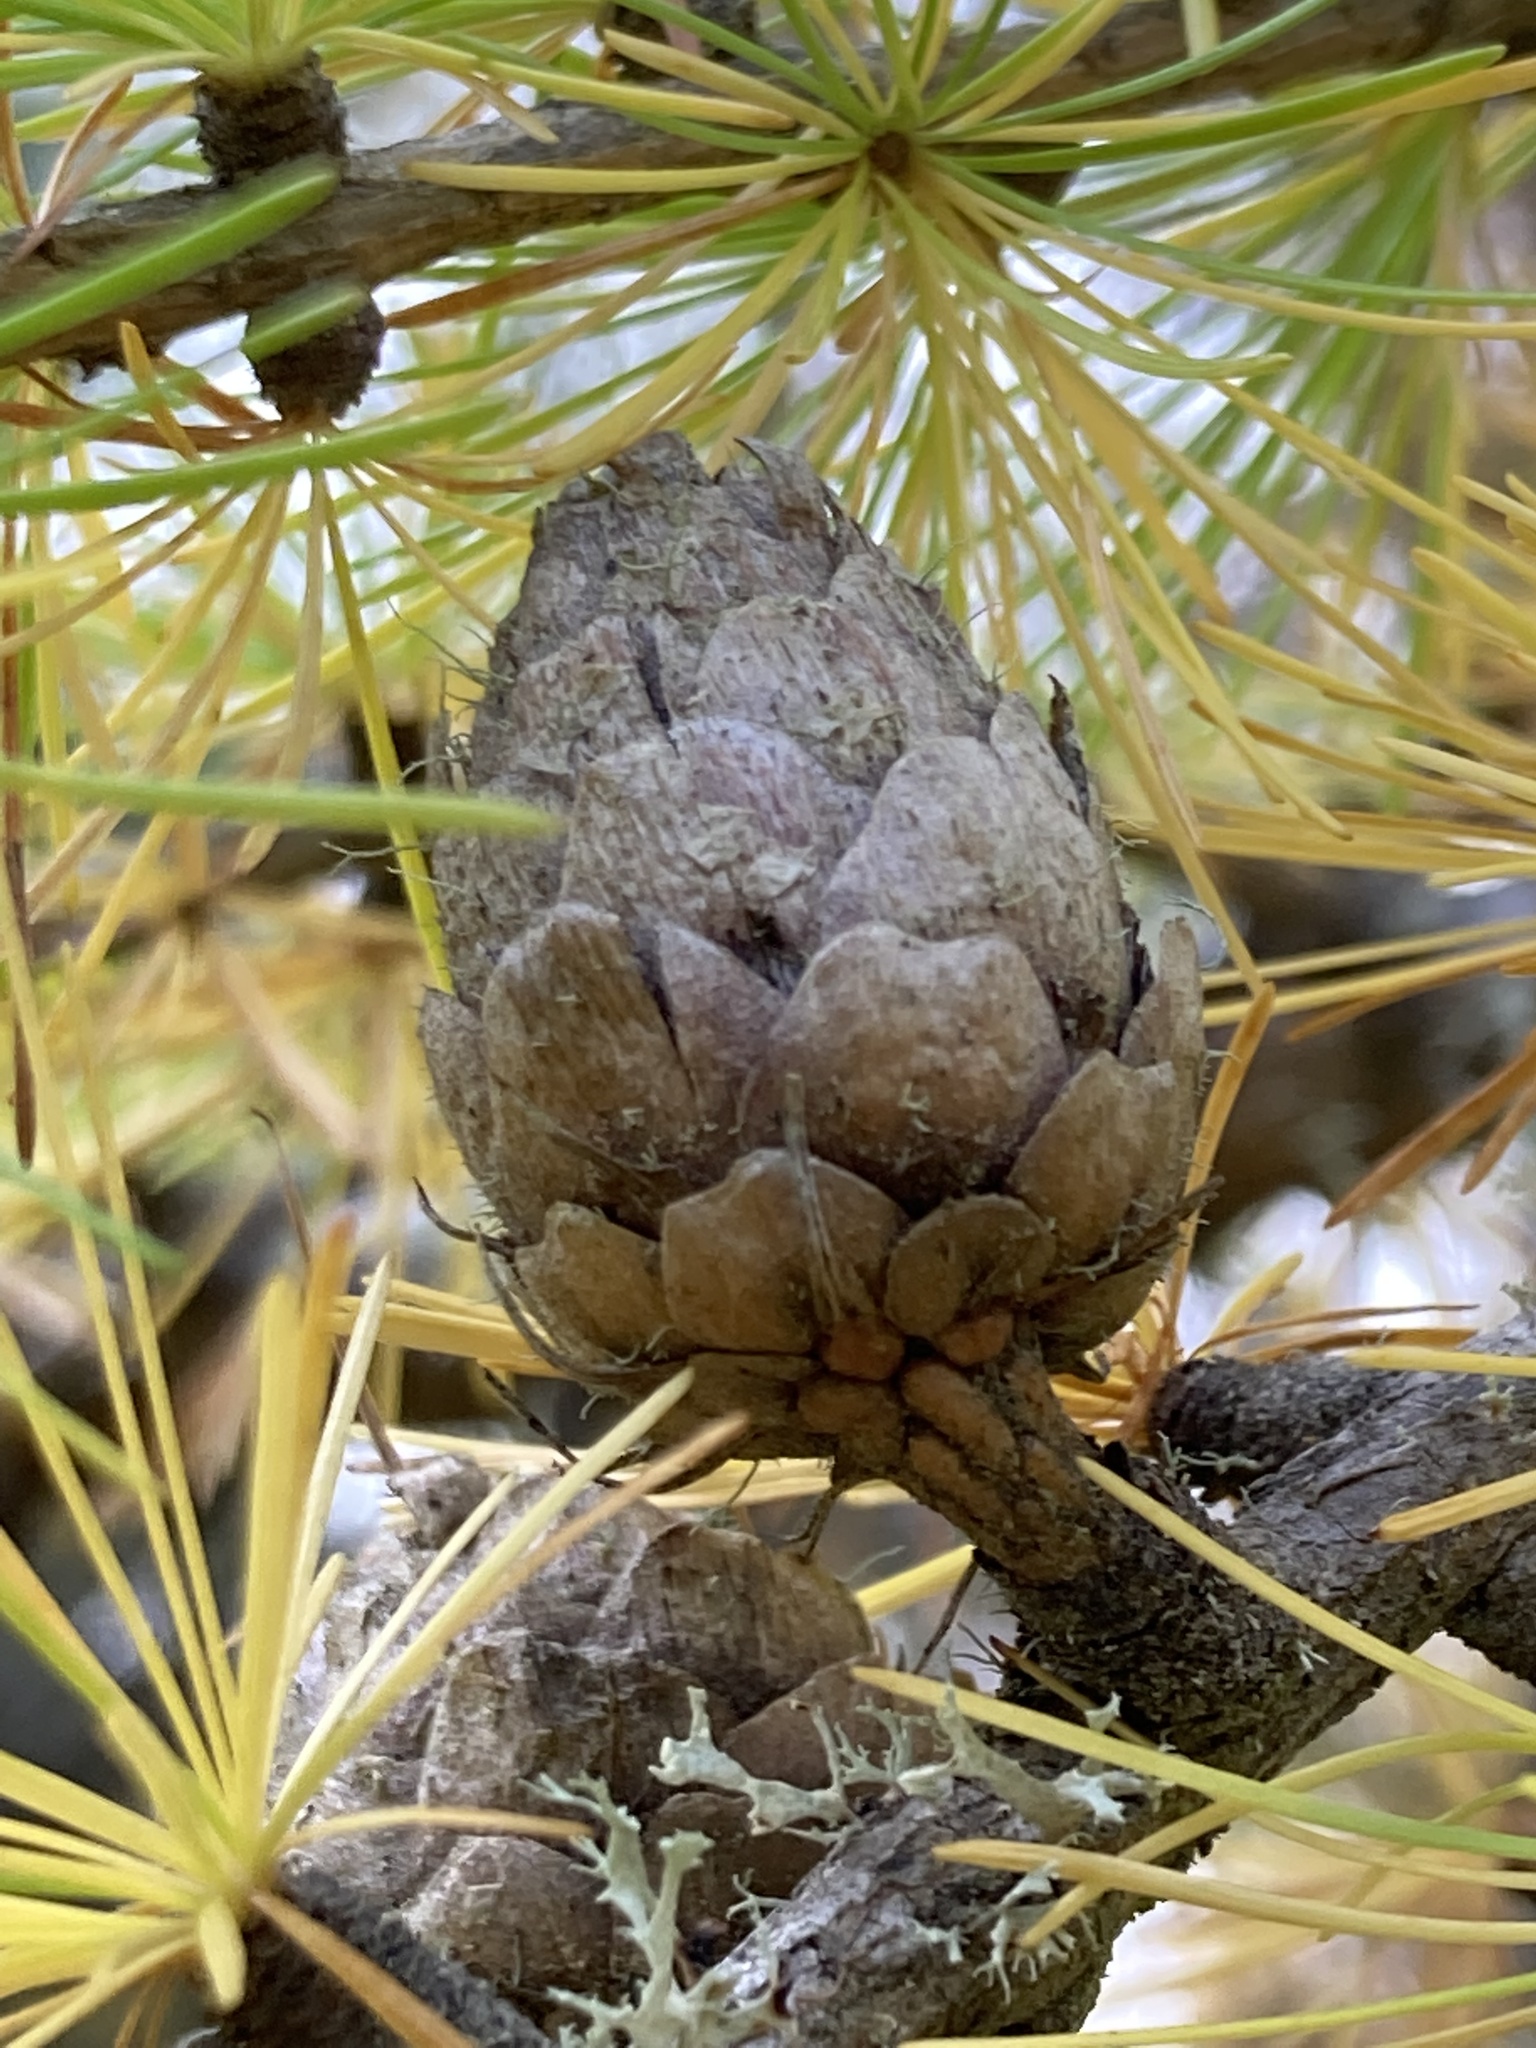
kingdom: Plantae
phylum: Tracheophyta
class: Pinopsida
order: Pinales
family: Pinaceae
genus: Larix
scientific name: Larix decidua
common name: European larch
